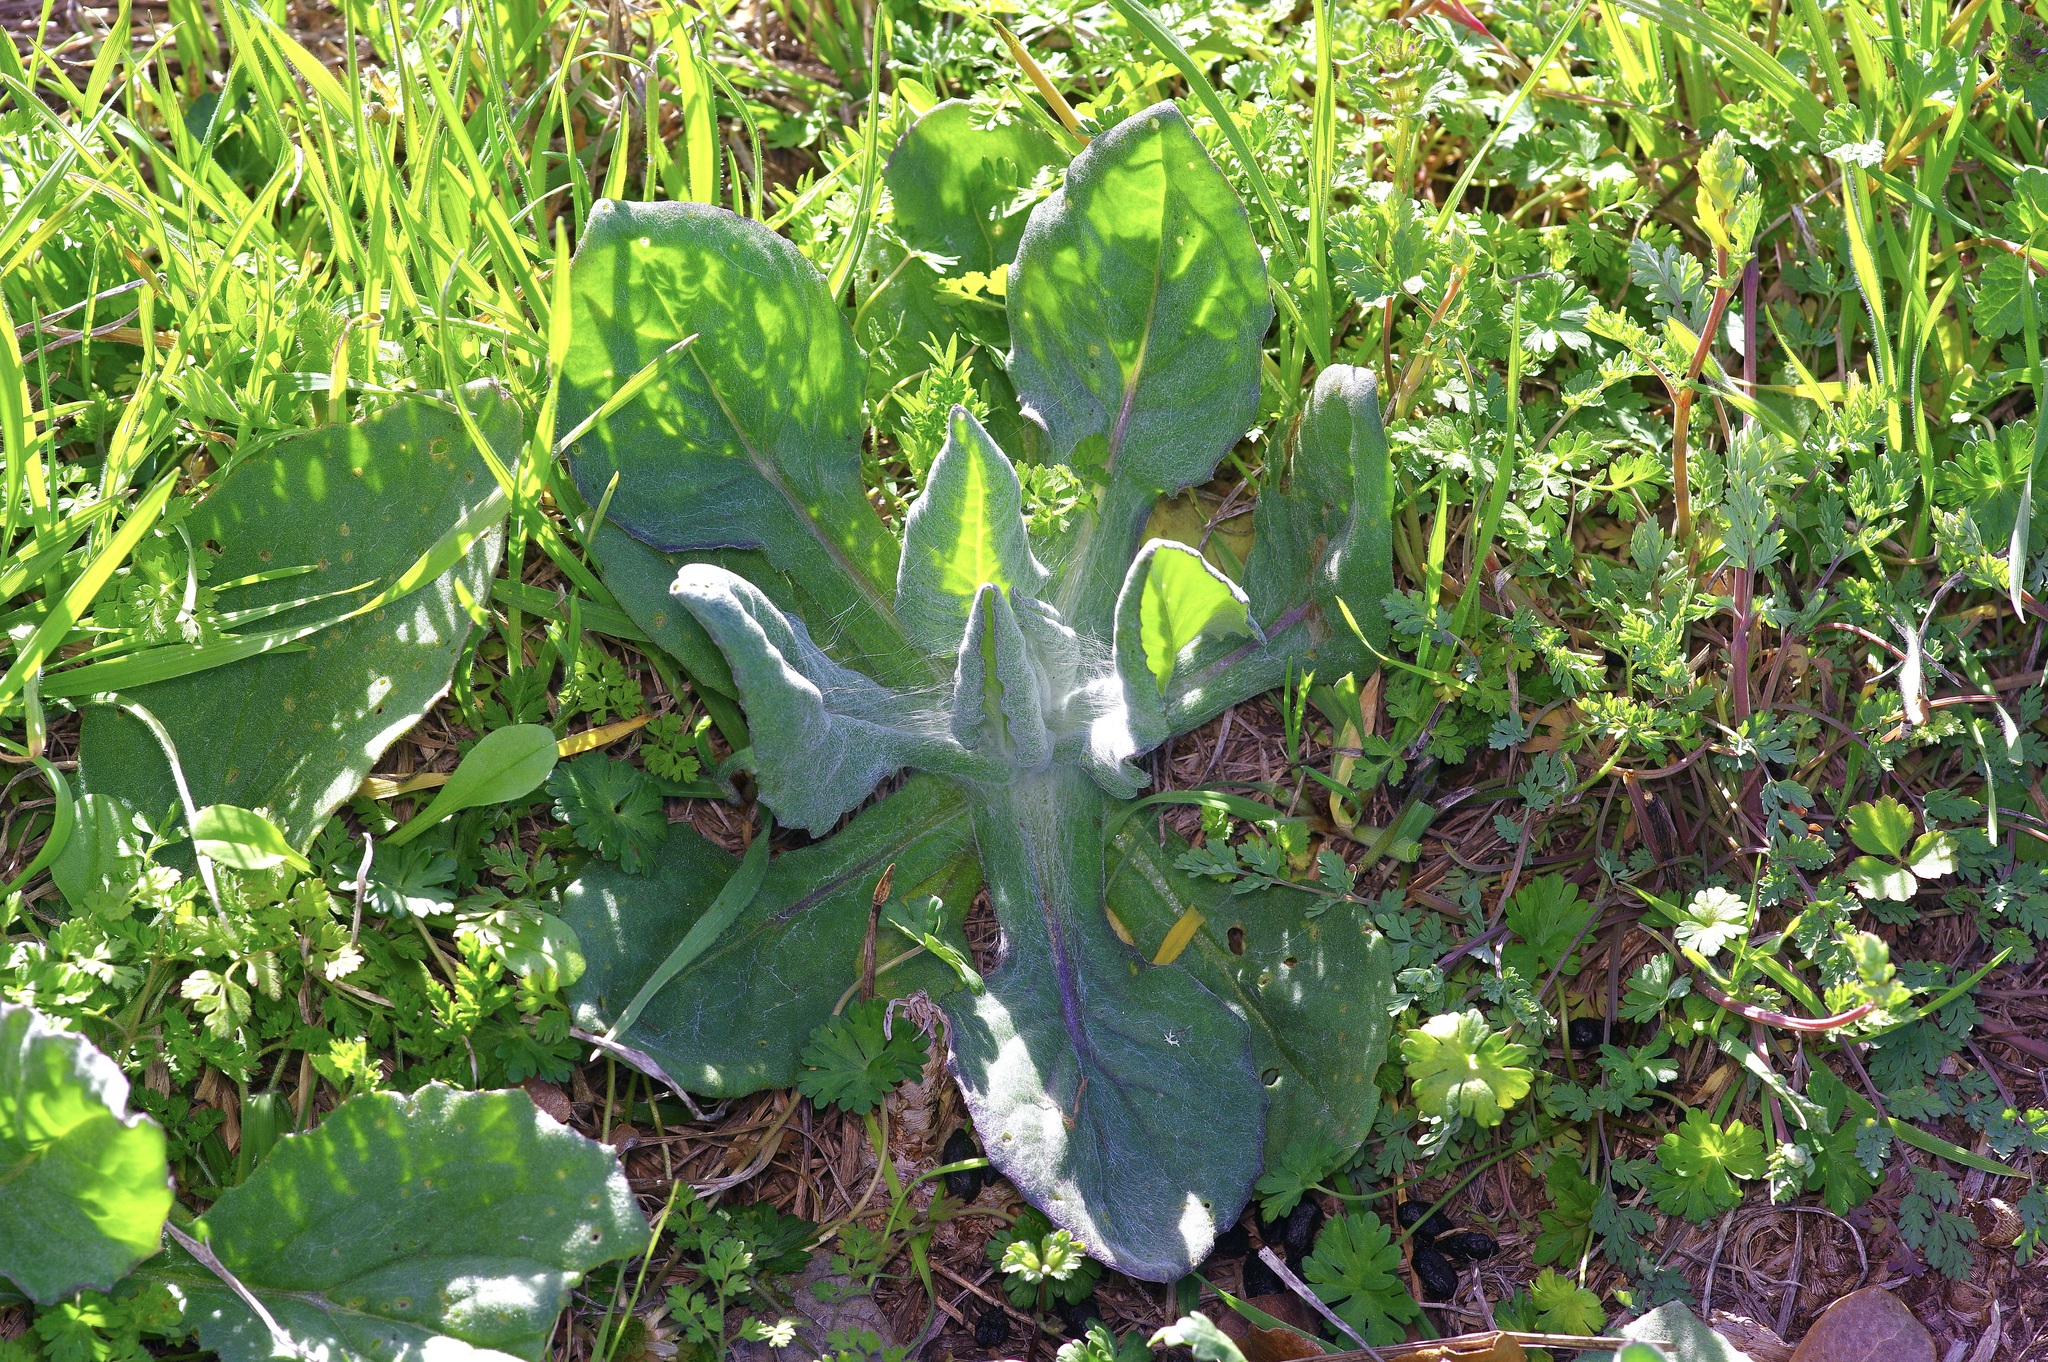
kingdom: Plantae
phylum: Tracheophyta
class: Magnoliopsida
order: Asterales
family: Asteraceae
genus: Senecio
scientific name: Senecio ampullaceus
